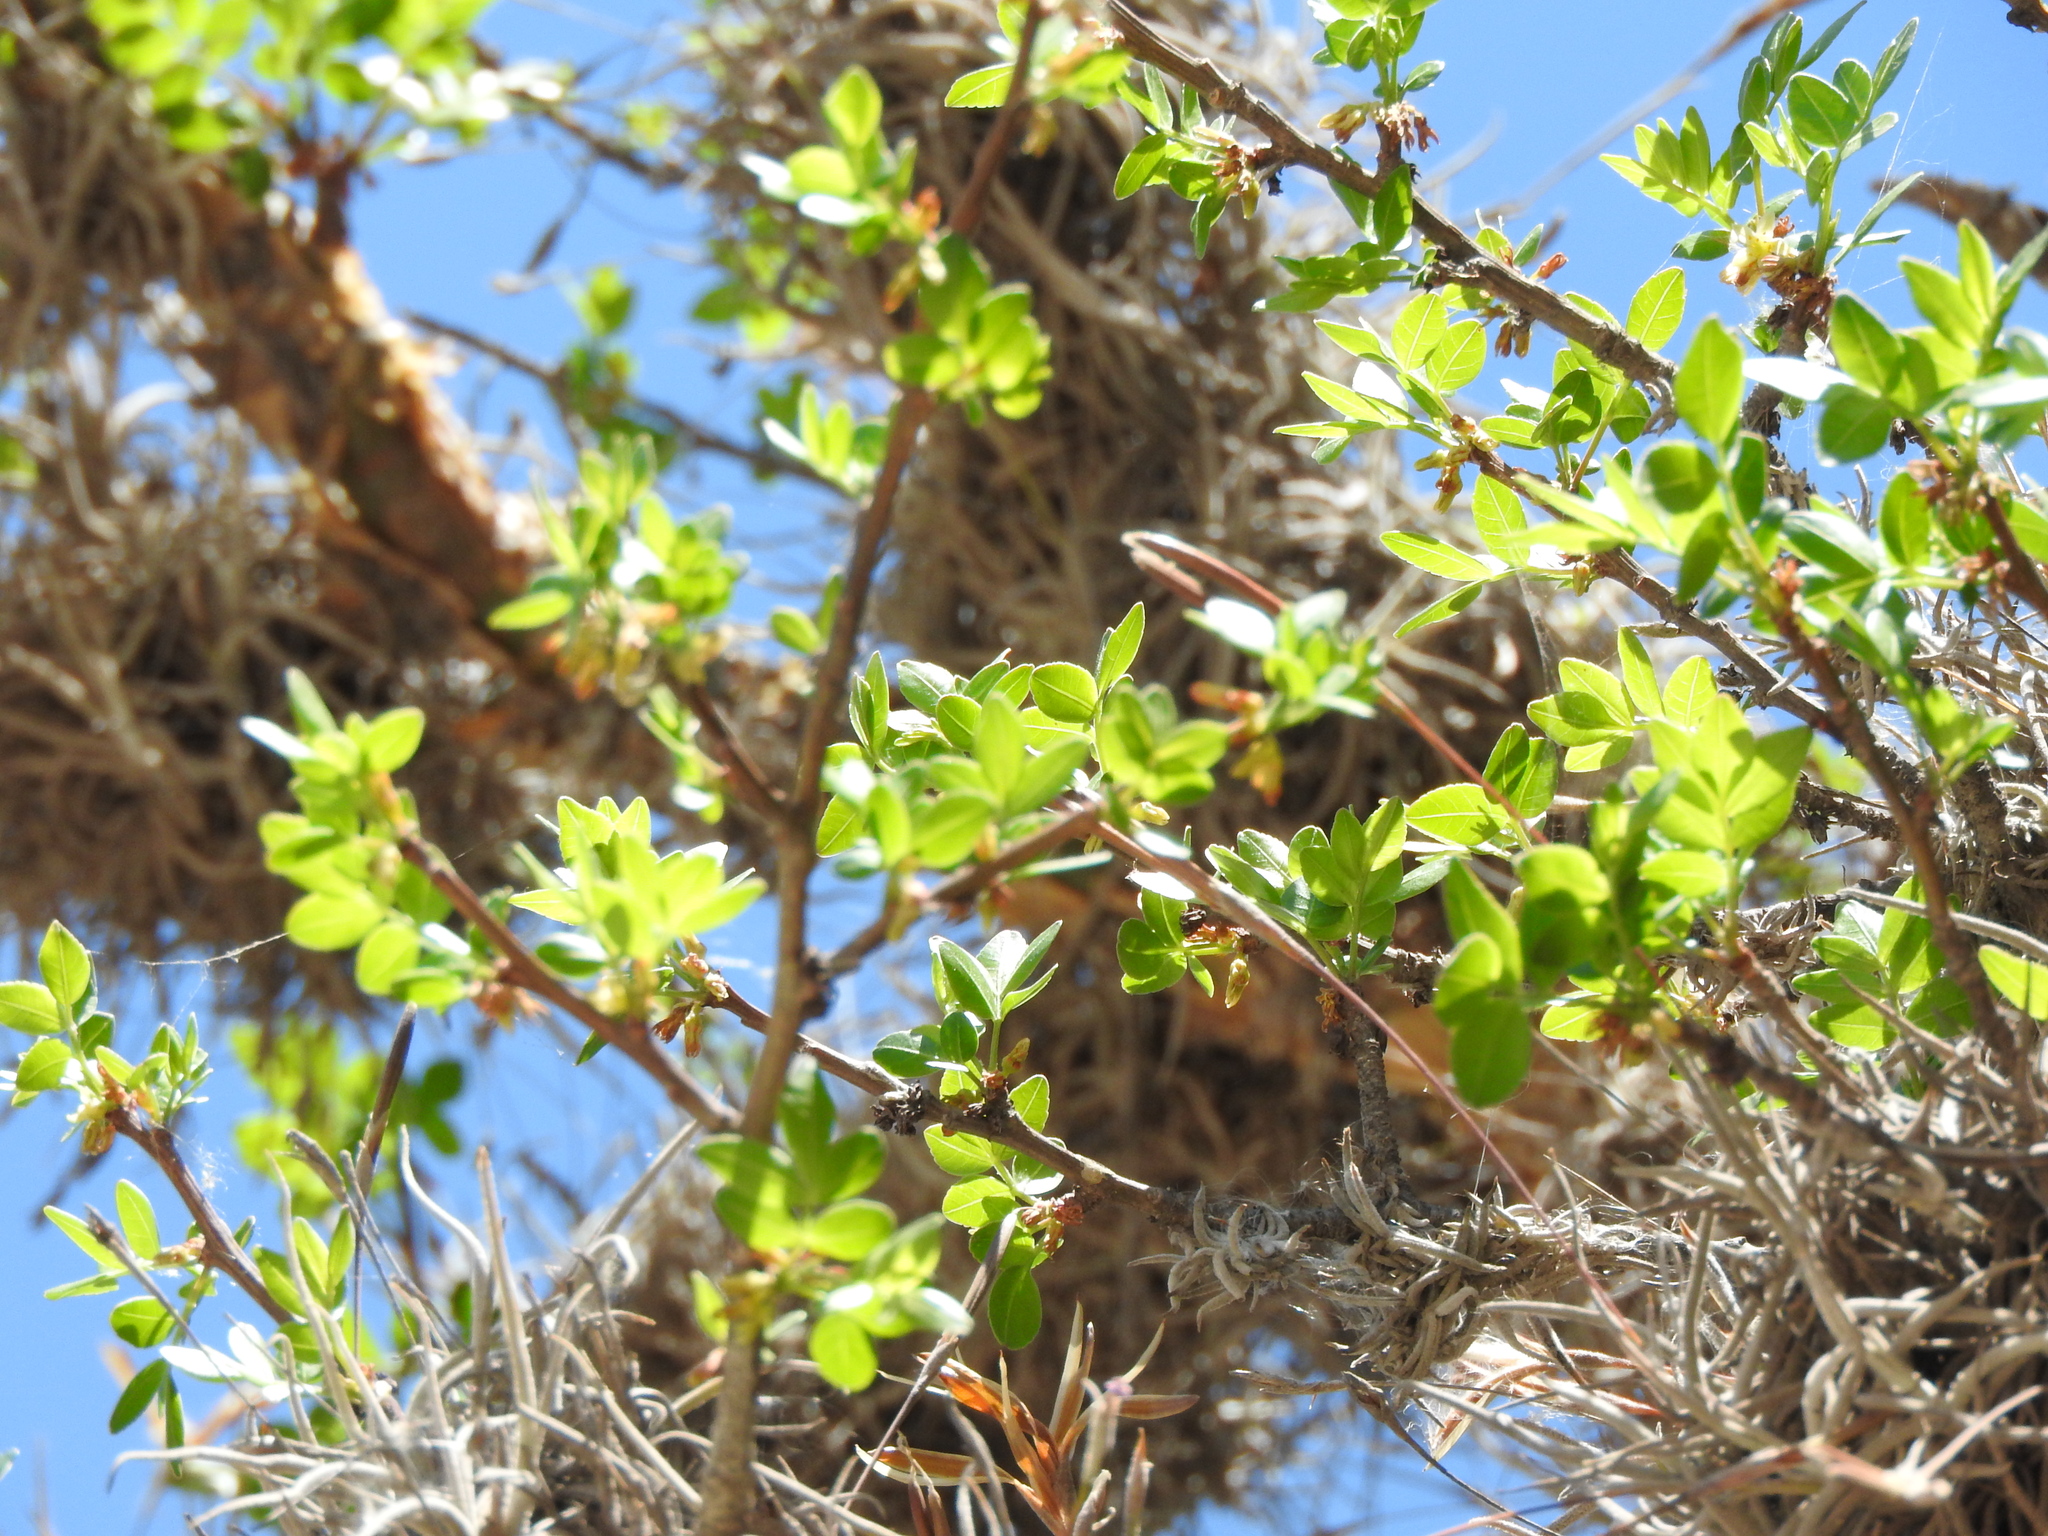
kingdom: Plantae
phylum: Tracheophyta
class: Magnoliopsida
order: Sapindales
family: Burseraceae
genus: Bursera
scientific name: Bursera fagaroides
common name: Elephant tree
